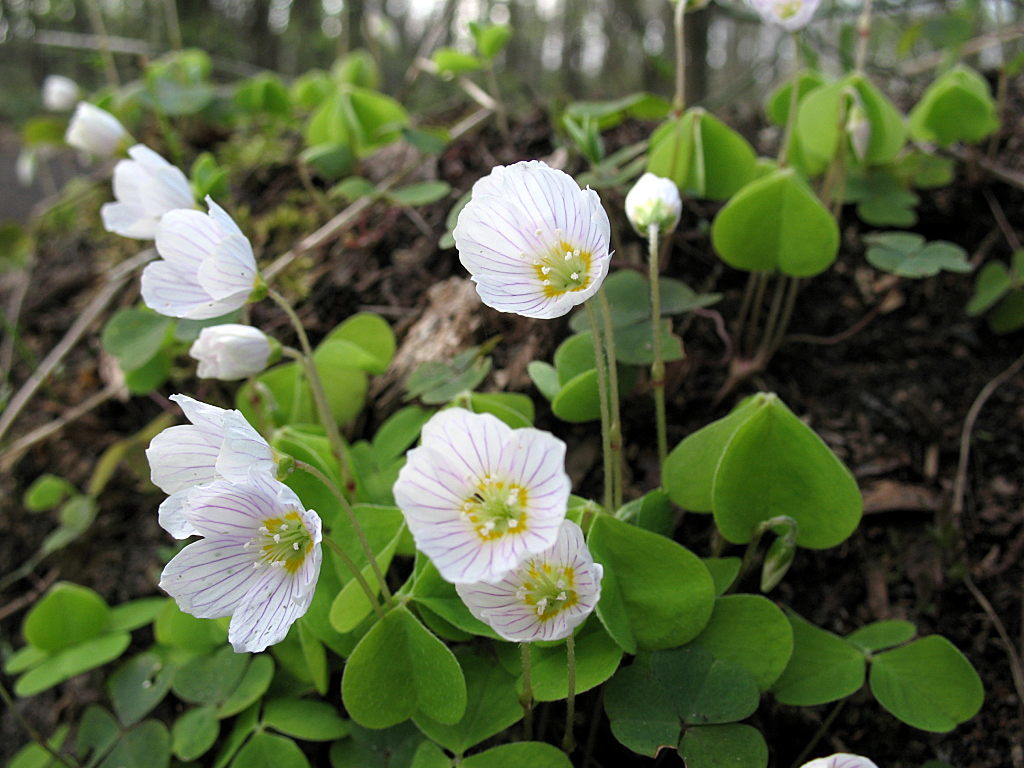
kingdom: Plantae
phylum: Tracheophyta
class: Magnoliopsida
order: Oxalidales
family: Oxalidaceae
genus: Oxalis
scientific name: Oxalis acetosella
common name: Wood-sorrel
